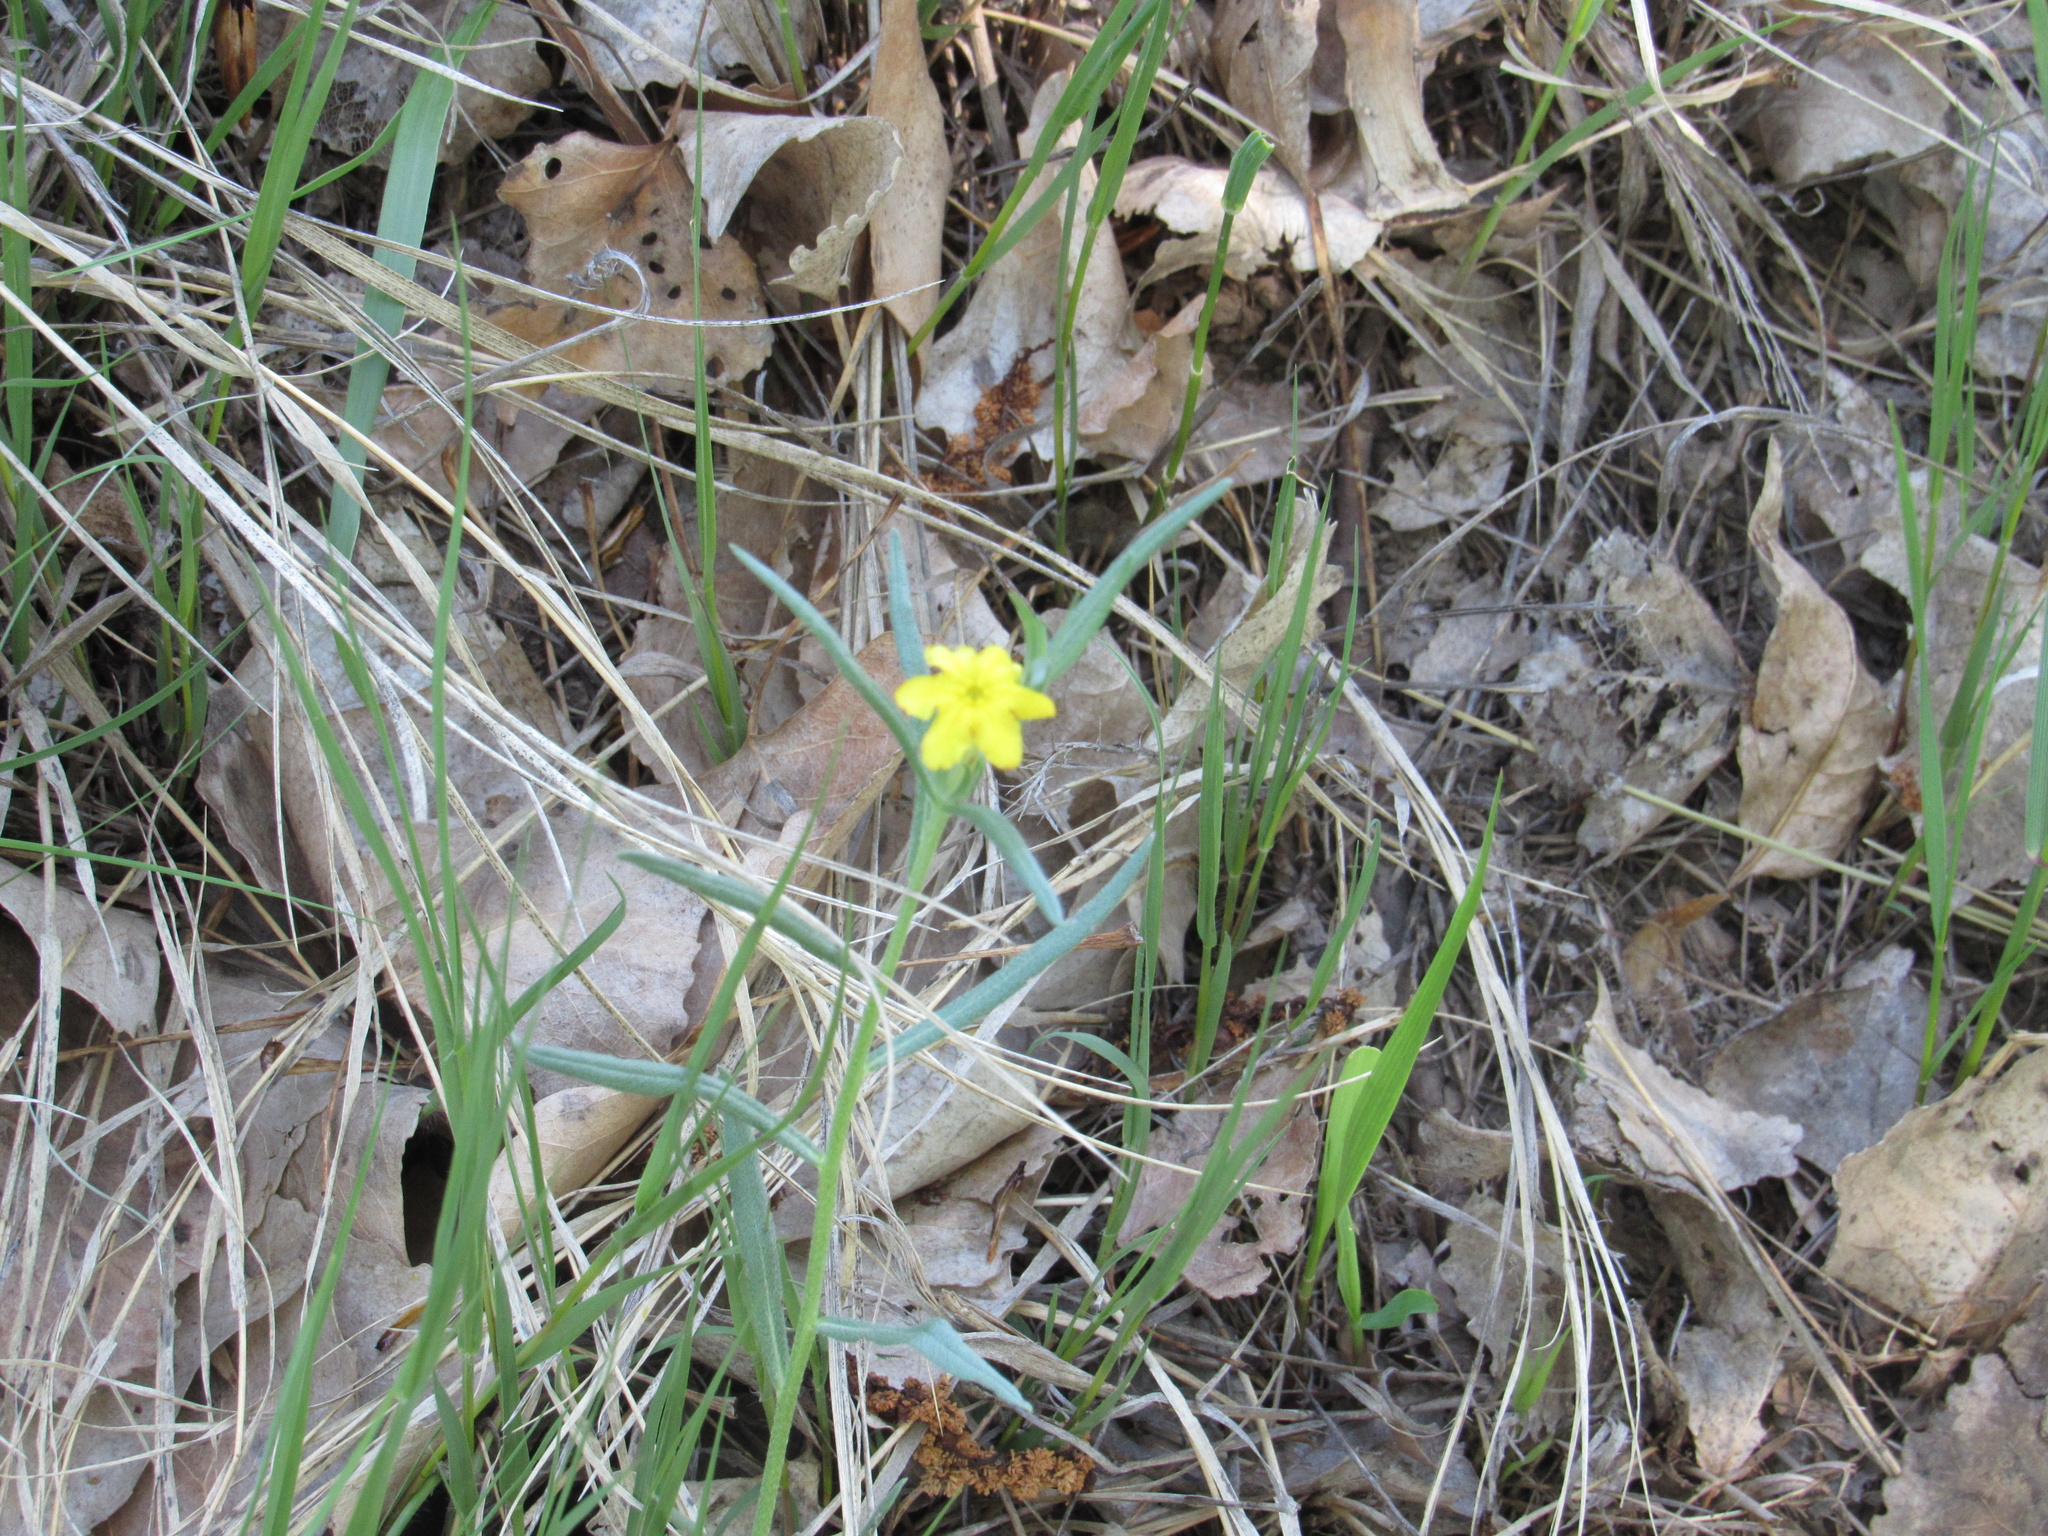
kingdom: Plantae
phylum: Tracheophyta
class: Magnoliopsida
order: Boraginales
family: Boraginaceae
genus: Lithospermum
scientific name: Lithospermum incisum
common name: Fringed gromwell
